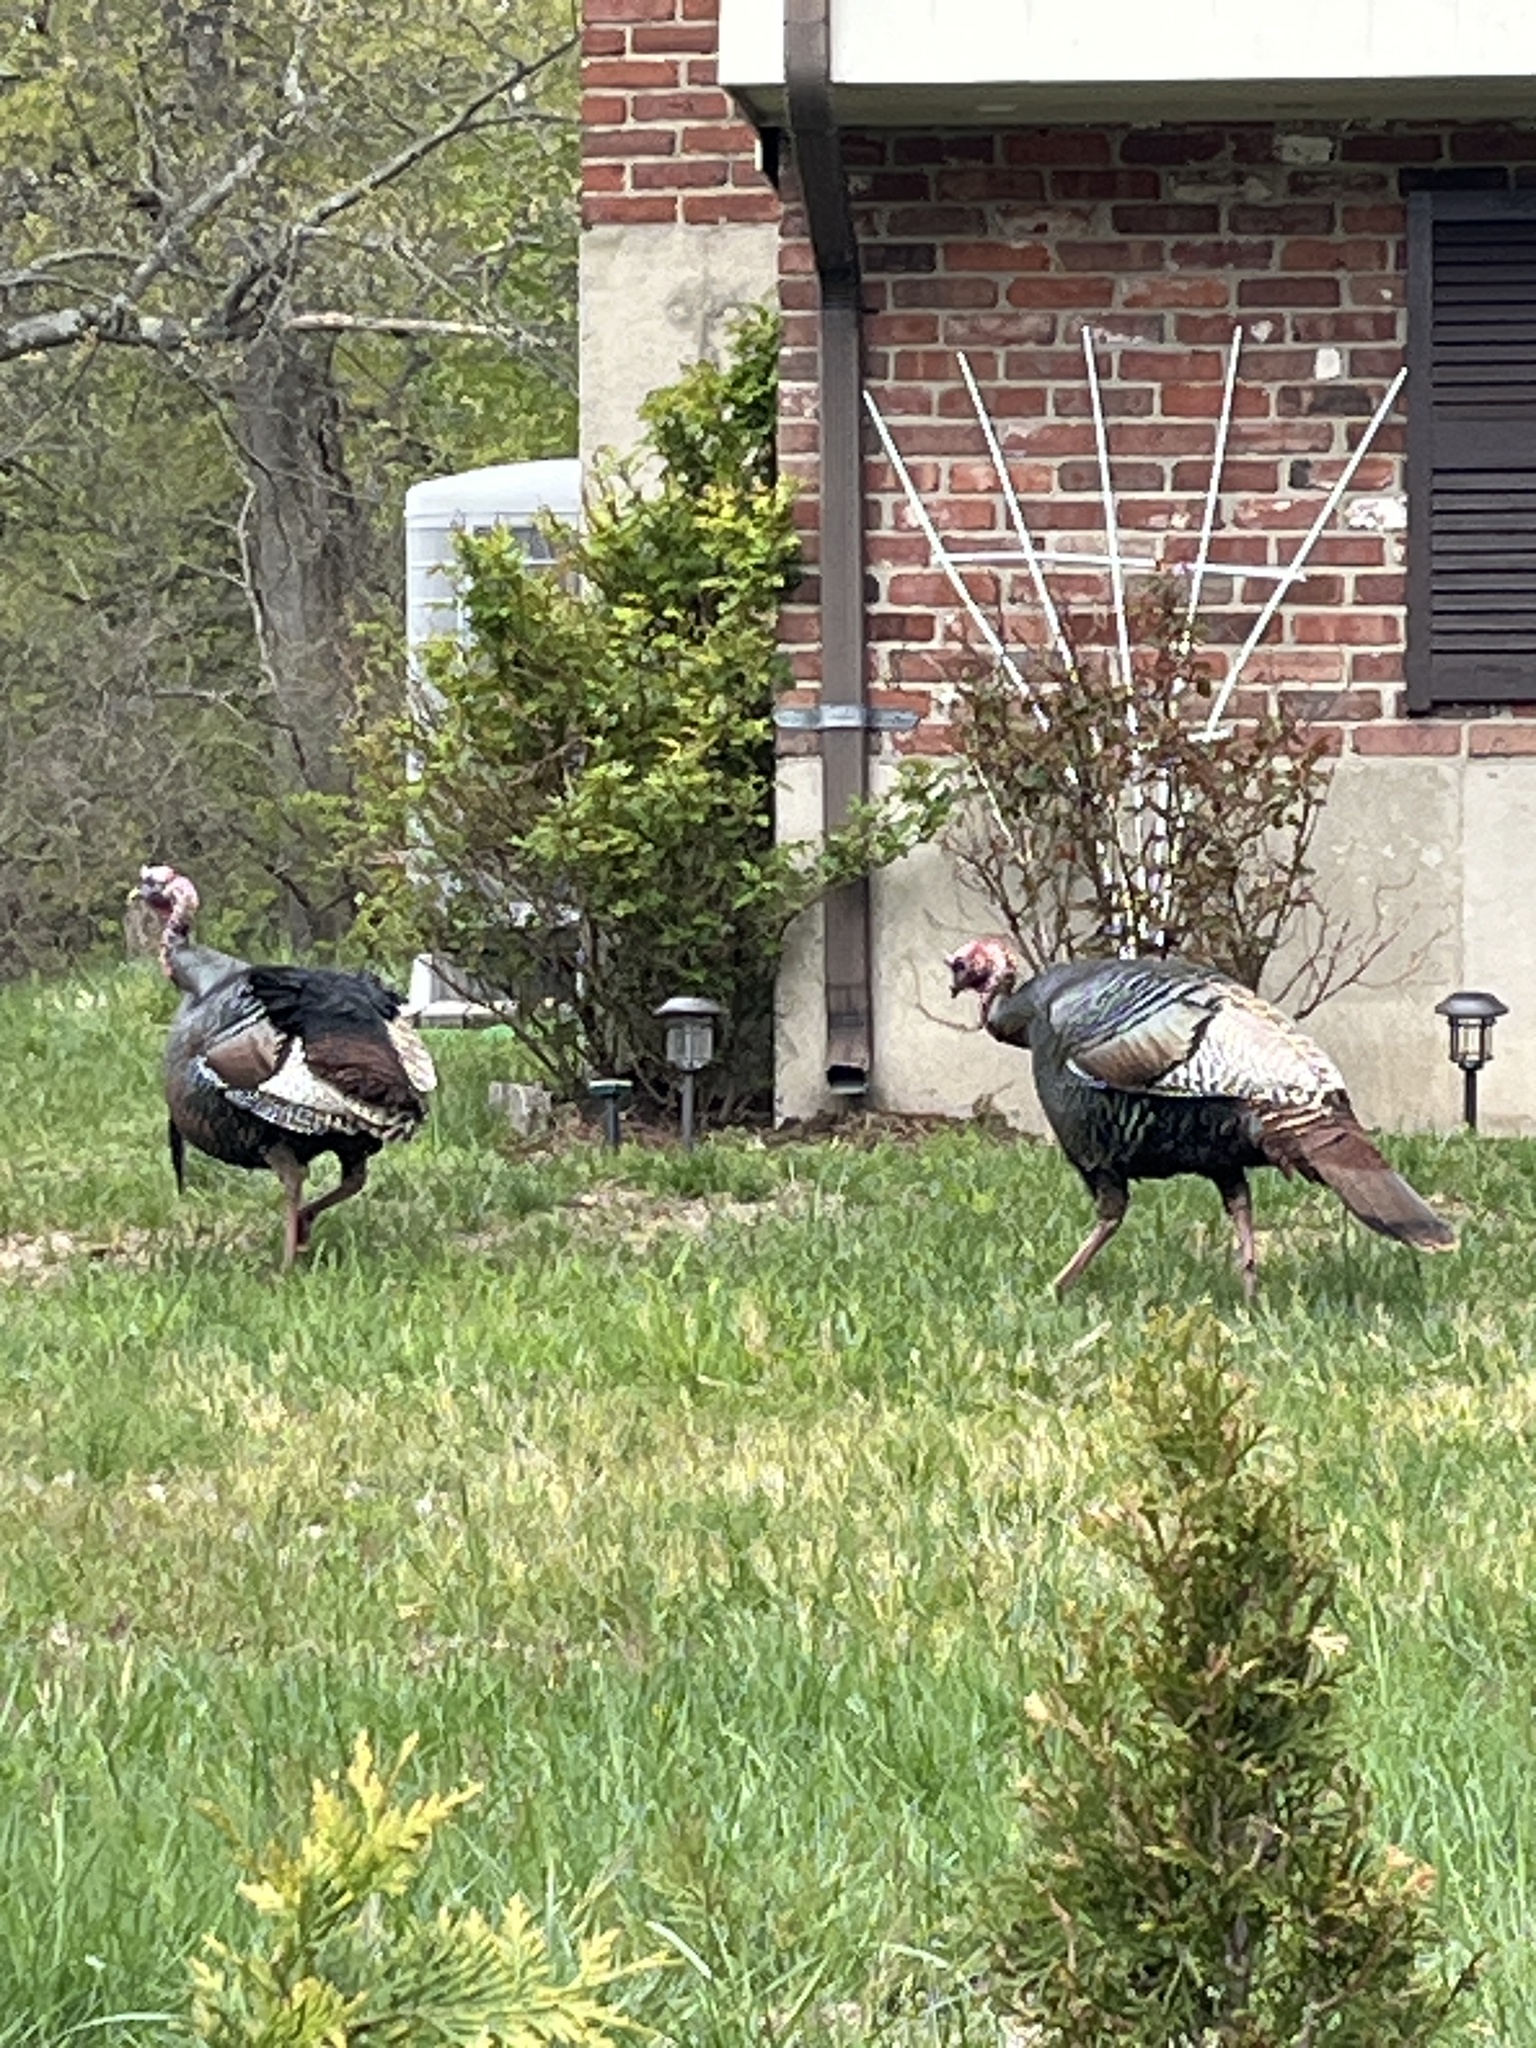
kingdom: Animalia
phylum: Chordata
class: Aves
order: Galliformes
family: Phasianidae
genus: Meleagris
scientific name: Meleagris gallopavo
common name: Wild turkey
